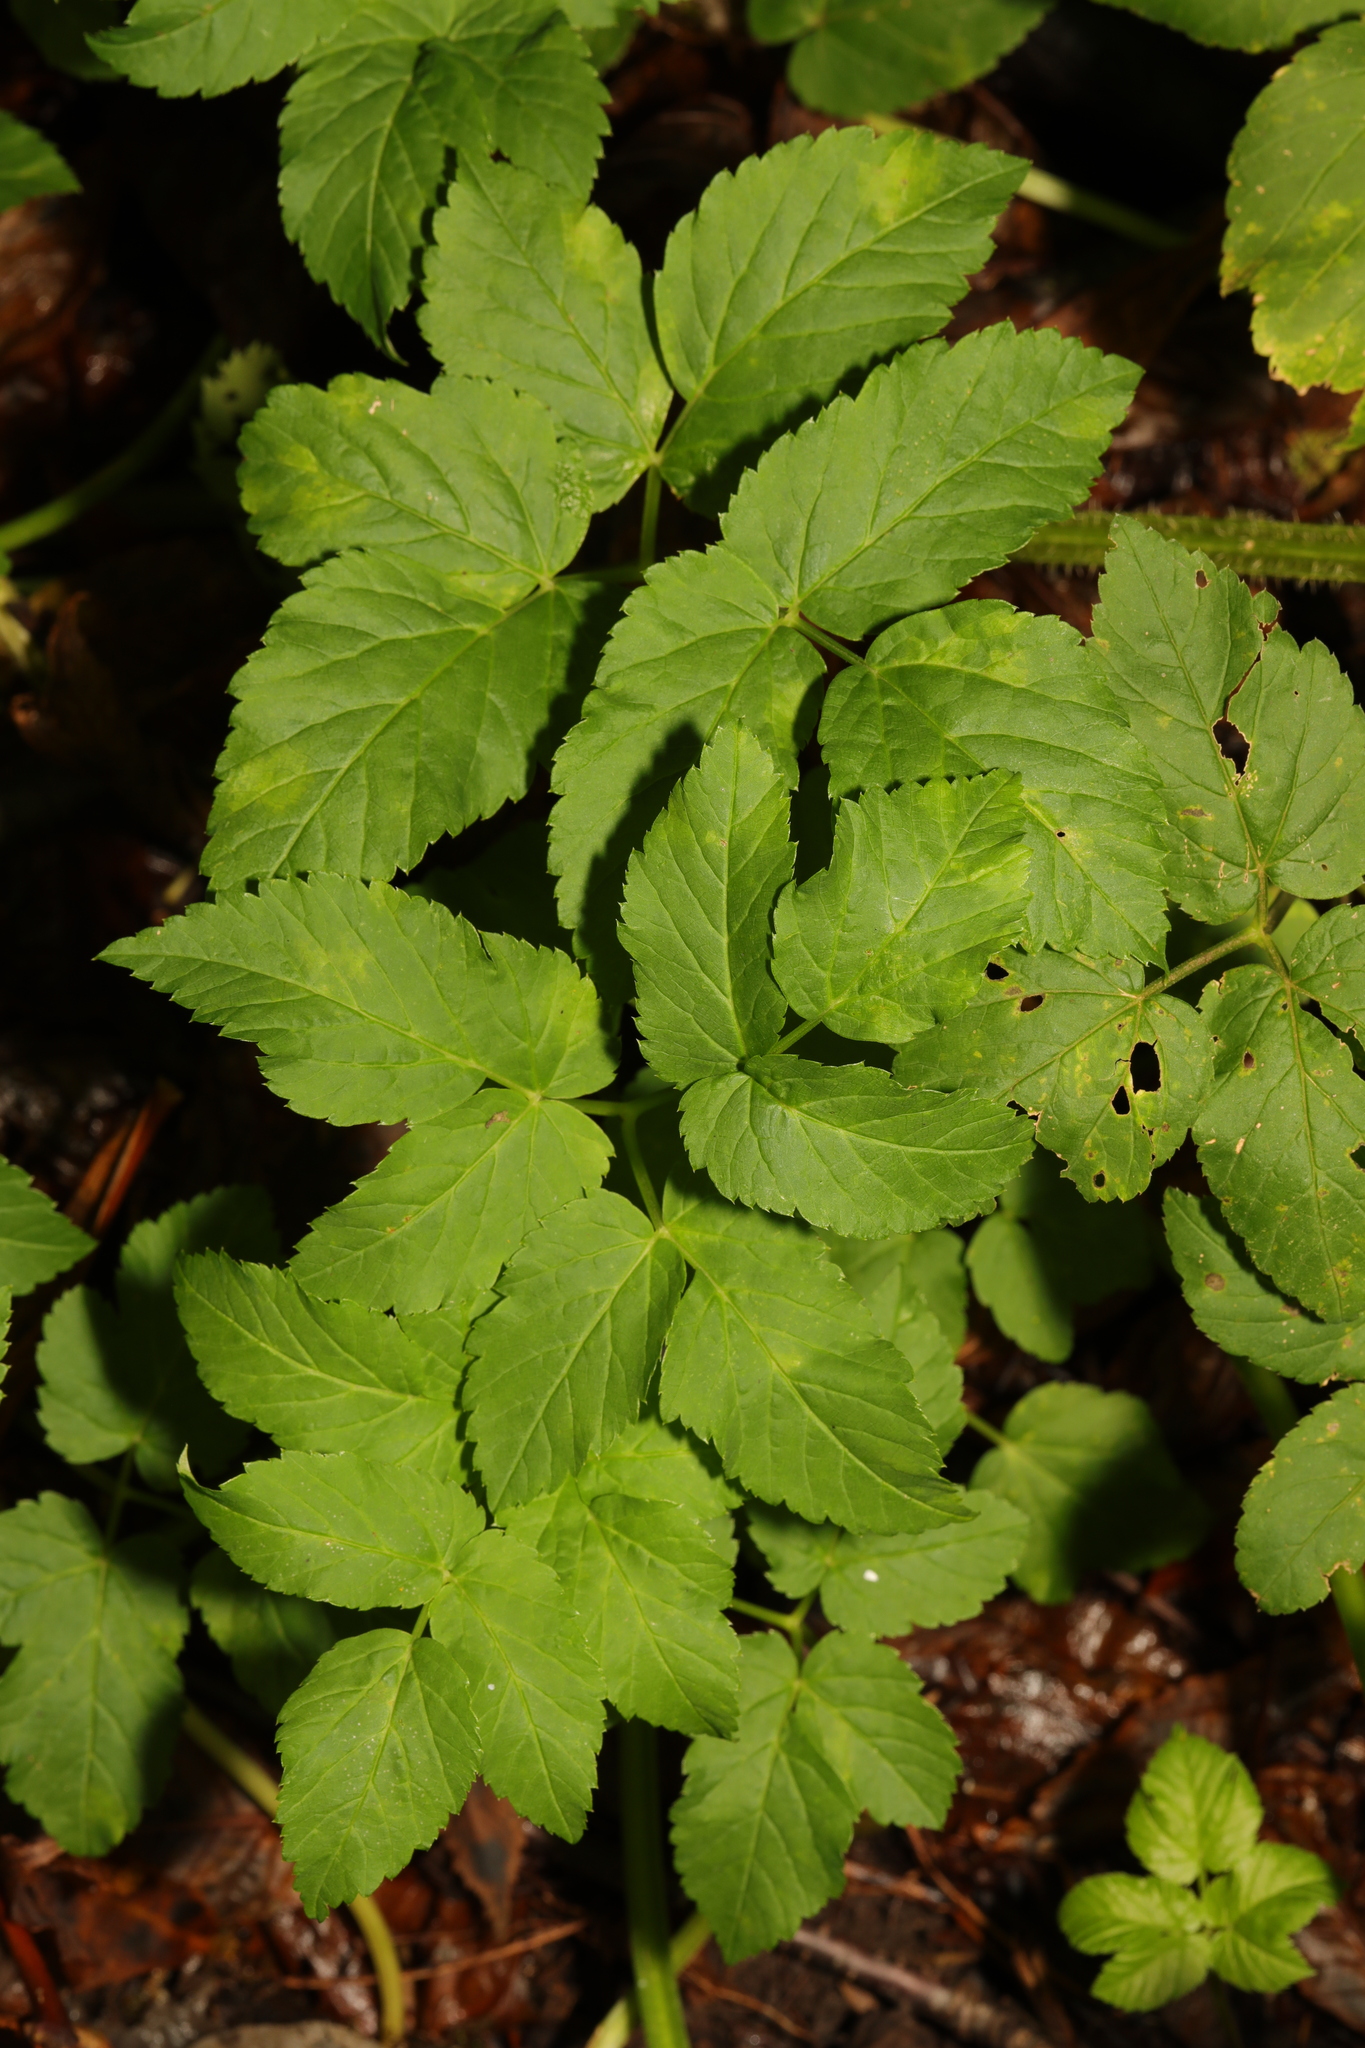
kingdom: Plantae
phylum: Tracheophyta
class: Magnoliopsida
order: Apiales
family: Apiaceae
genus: Aegopodium
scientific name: Aegopodium podagraria
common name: Ground-elder
